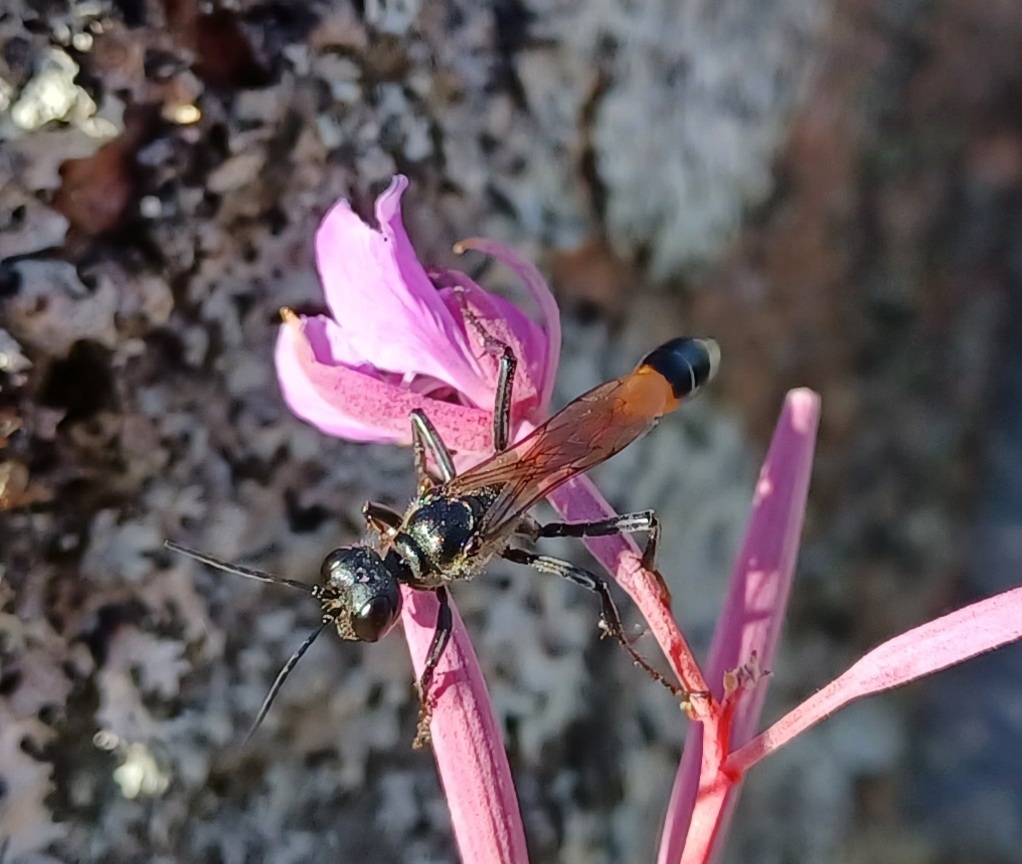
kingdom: Animalia
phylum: Arthropoda
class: Insecta
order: Hymenoptera
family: Sphecidae
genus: Ammophila
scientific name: Ammophila sabulosa
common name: Red banded sand wasp
